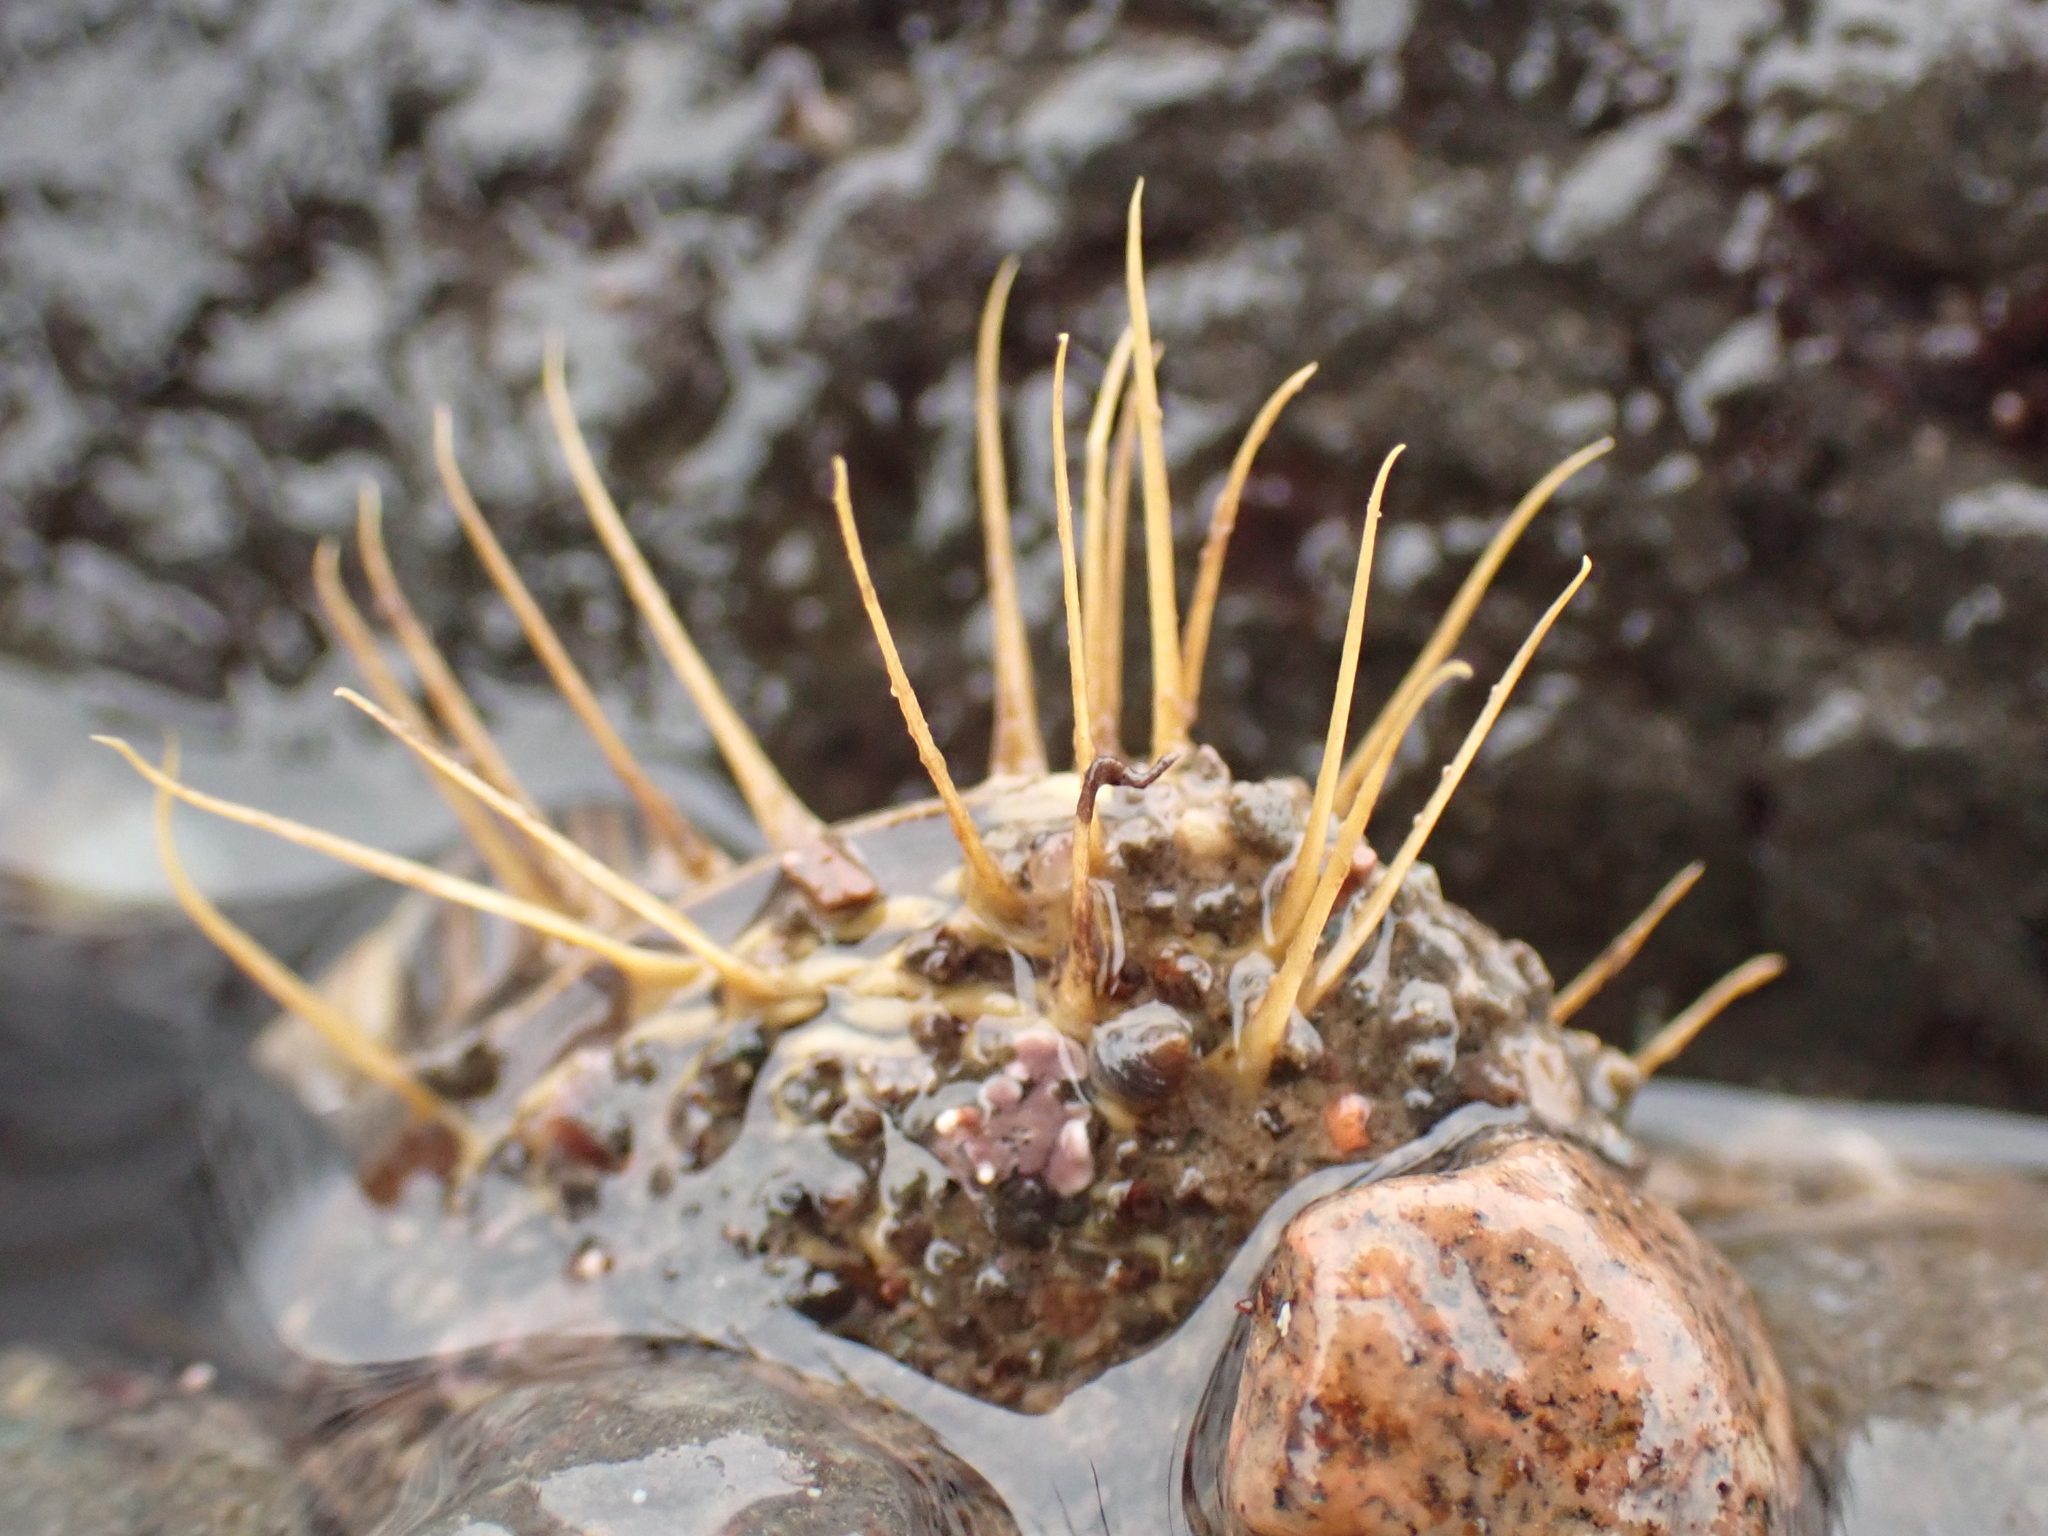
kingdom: Animalia
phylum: Mollusca
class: Bivalvia
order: Mytilida
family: Mytilidae
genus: Modiolus
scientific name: Modiolus modiolus
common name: Horse-mussel
